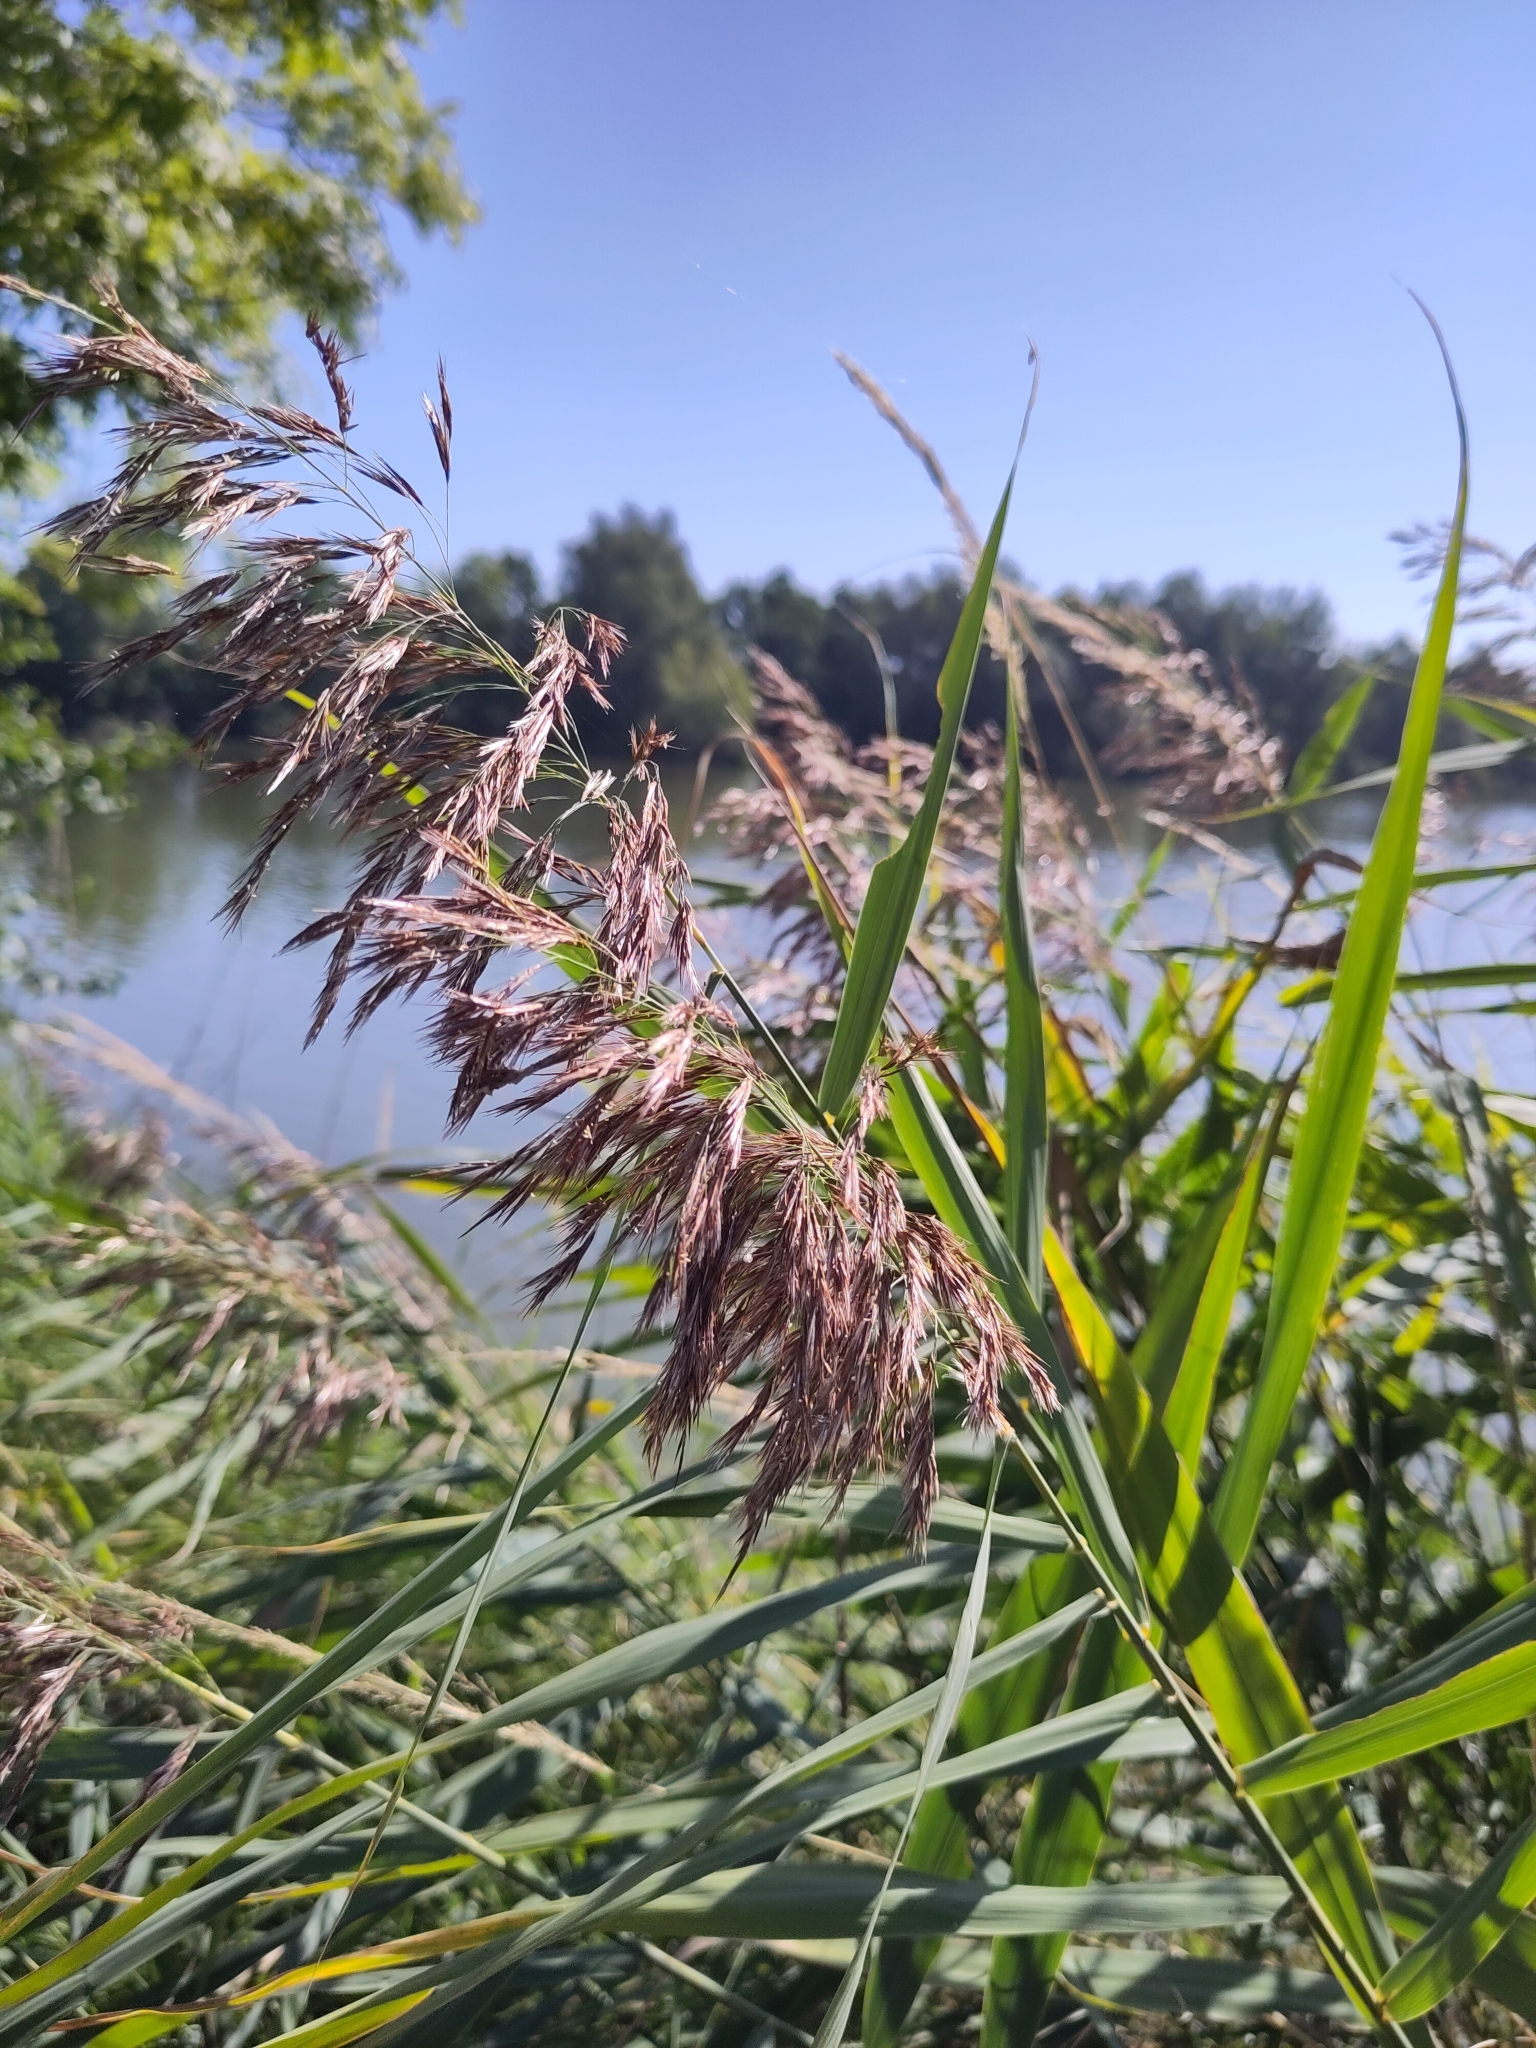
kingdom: Plantae
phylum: Tracheophyta
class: Liliopsida
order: Poales
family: Poaceae
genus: Phragmites
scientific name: Phragmites australis
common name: Common reed
